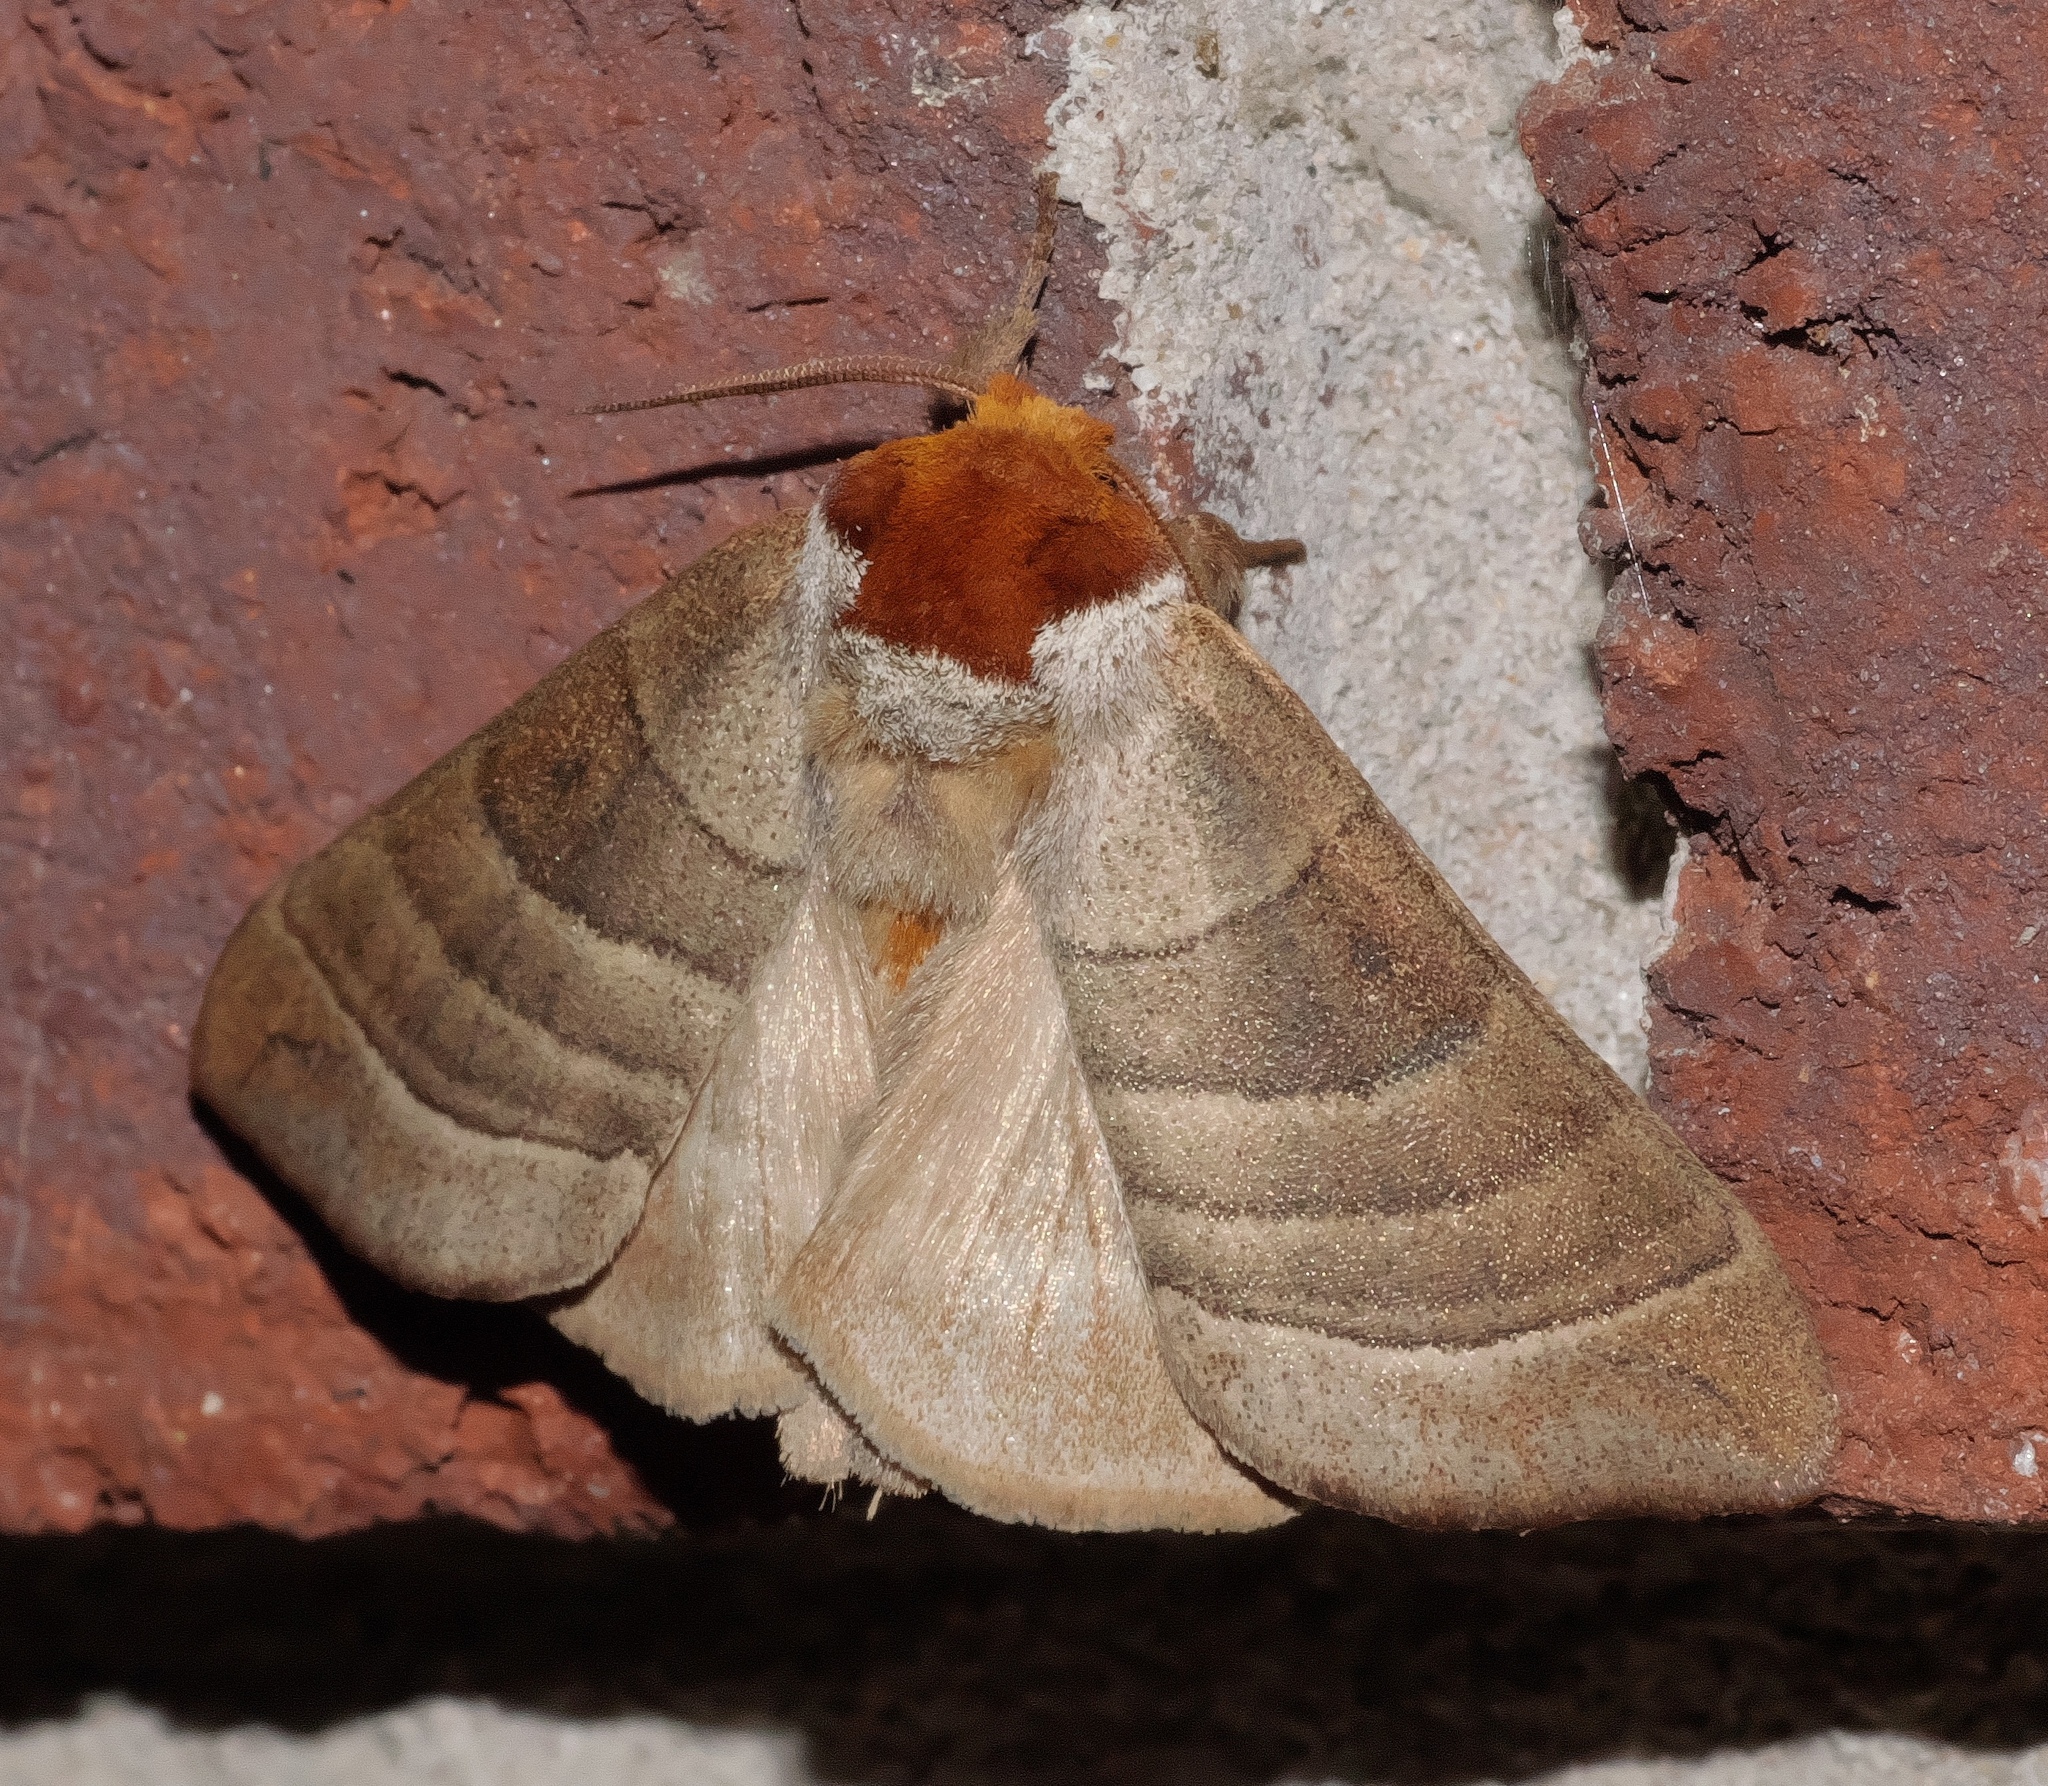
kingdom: Animalia
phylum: Arthropoda
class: Insecta
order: Lepidoptera
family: Notodontidae
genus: Datana
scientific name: Datana integerrima
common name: Walnut caterpillar
